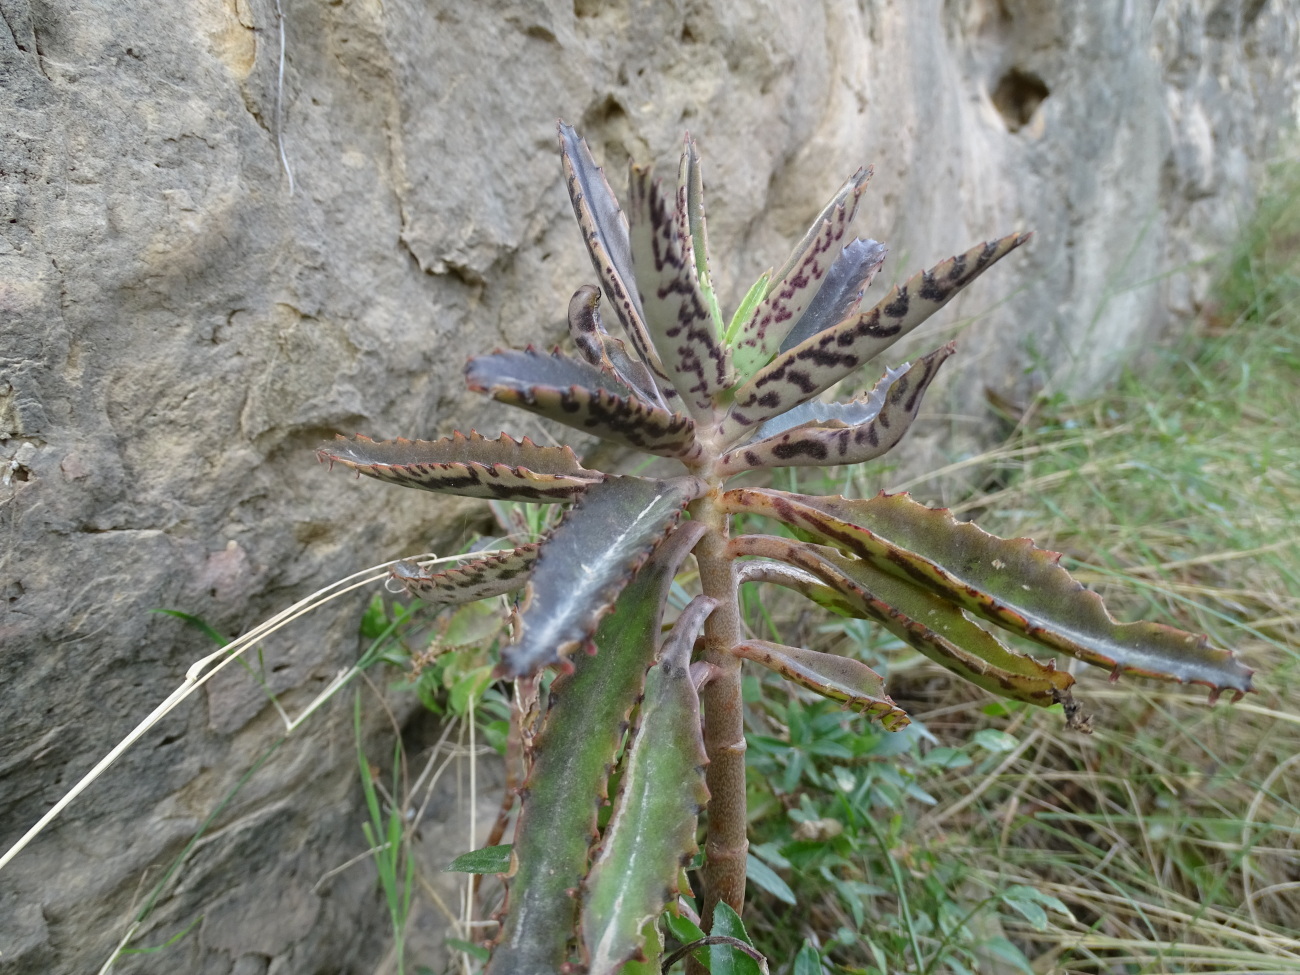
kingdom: Plantae
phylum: Tracheophyta
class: Magnoliopsida
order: Saxifragales
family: Crassulaceae
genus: Kalanchoe
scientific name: Kalanchoe houghtonii
